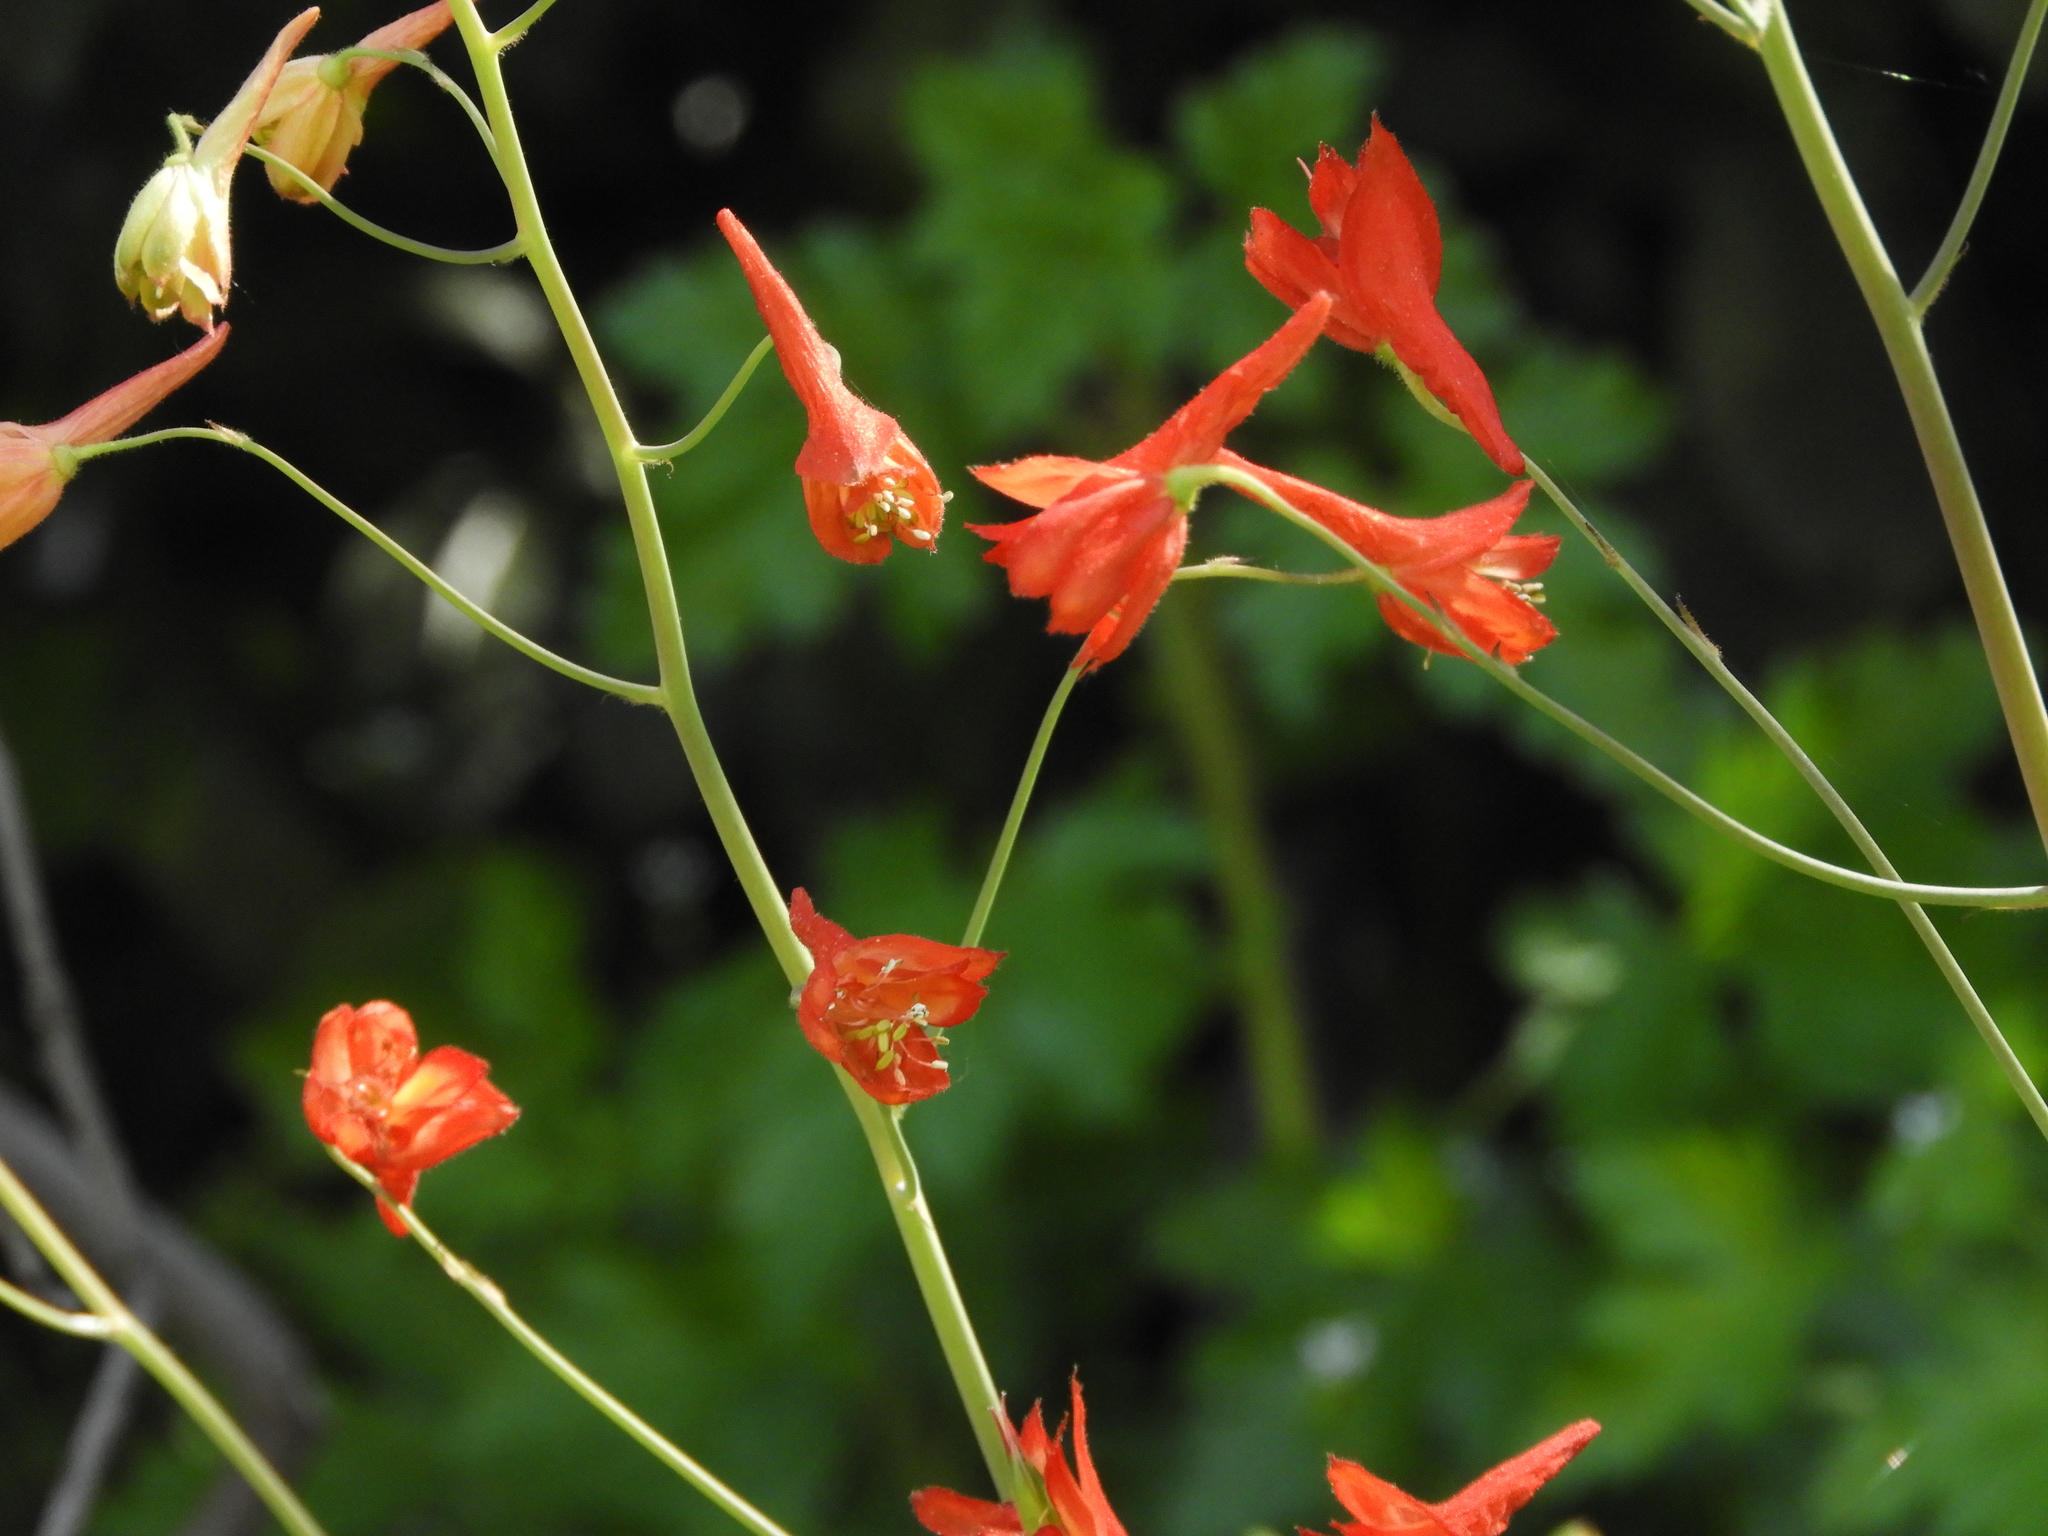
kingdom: Plantae
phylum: Tracheophyta
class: Magnoliopsida
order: Ranunculales
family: Ranunculaceae
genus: Delphinium
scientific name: Delphinium nudicaule
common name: Red larkspur
